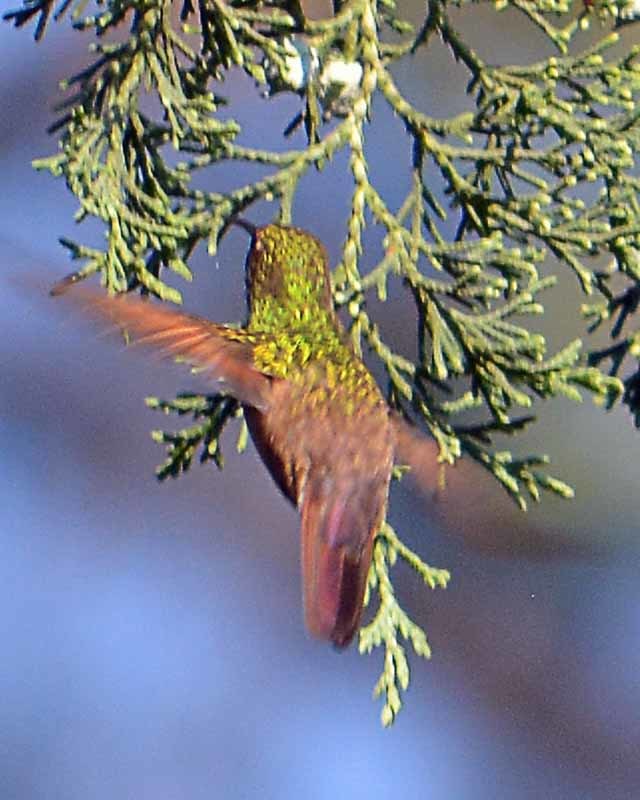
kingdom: Animalia
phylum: Chordata
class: Aves
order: Apodiformes
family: Trochilidae
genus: Saucerottia
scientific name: Saucerottia beryllina
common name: Berylline hummingbird
